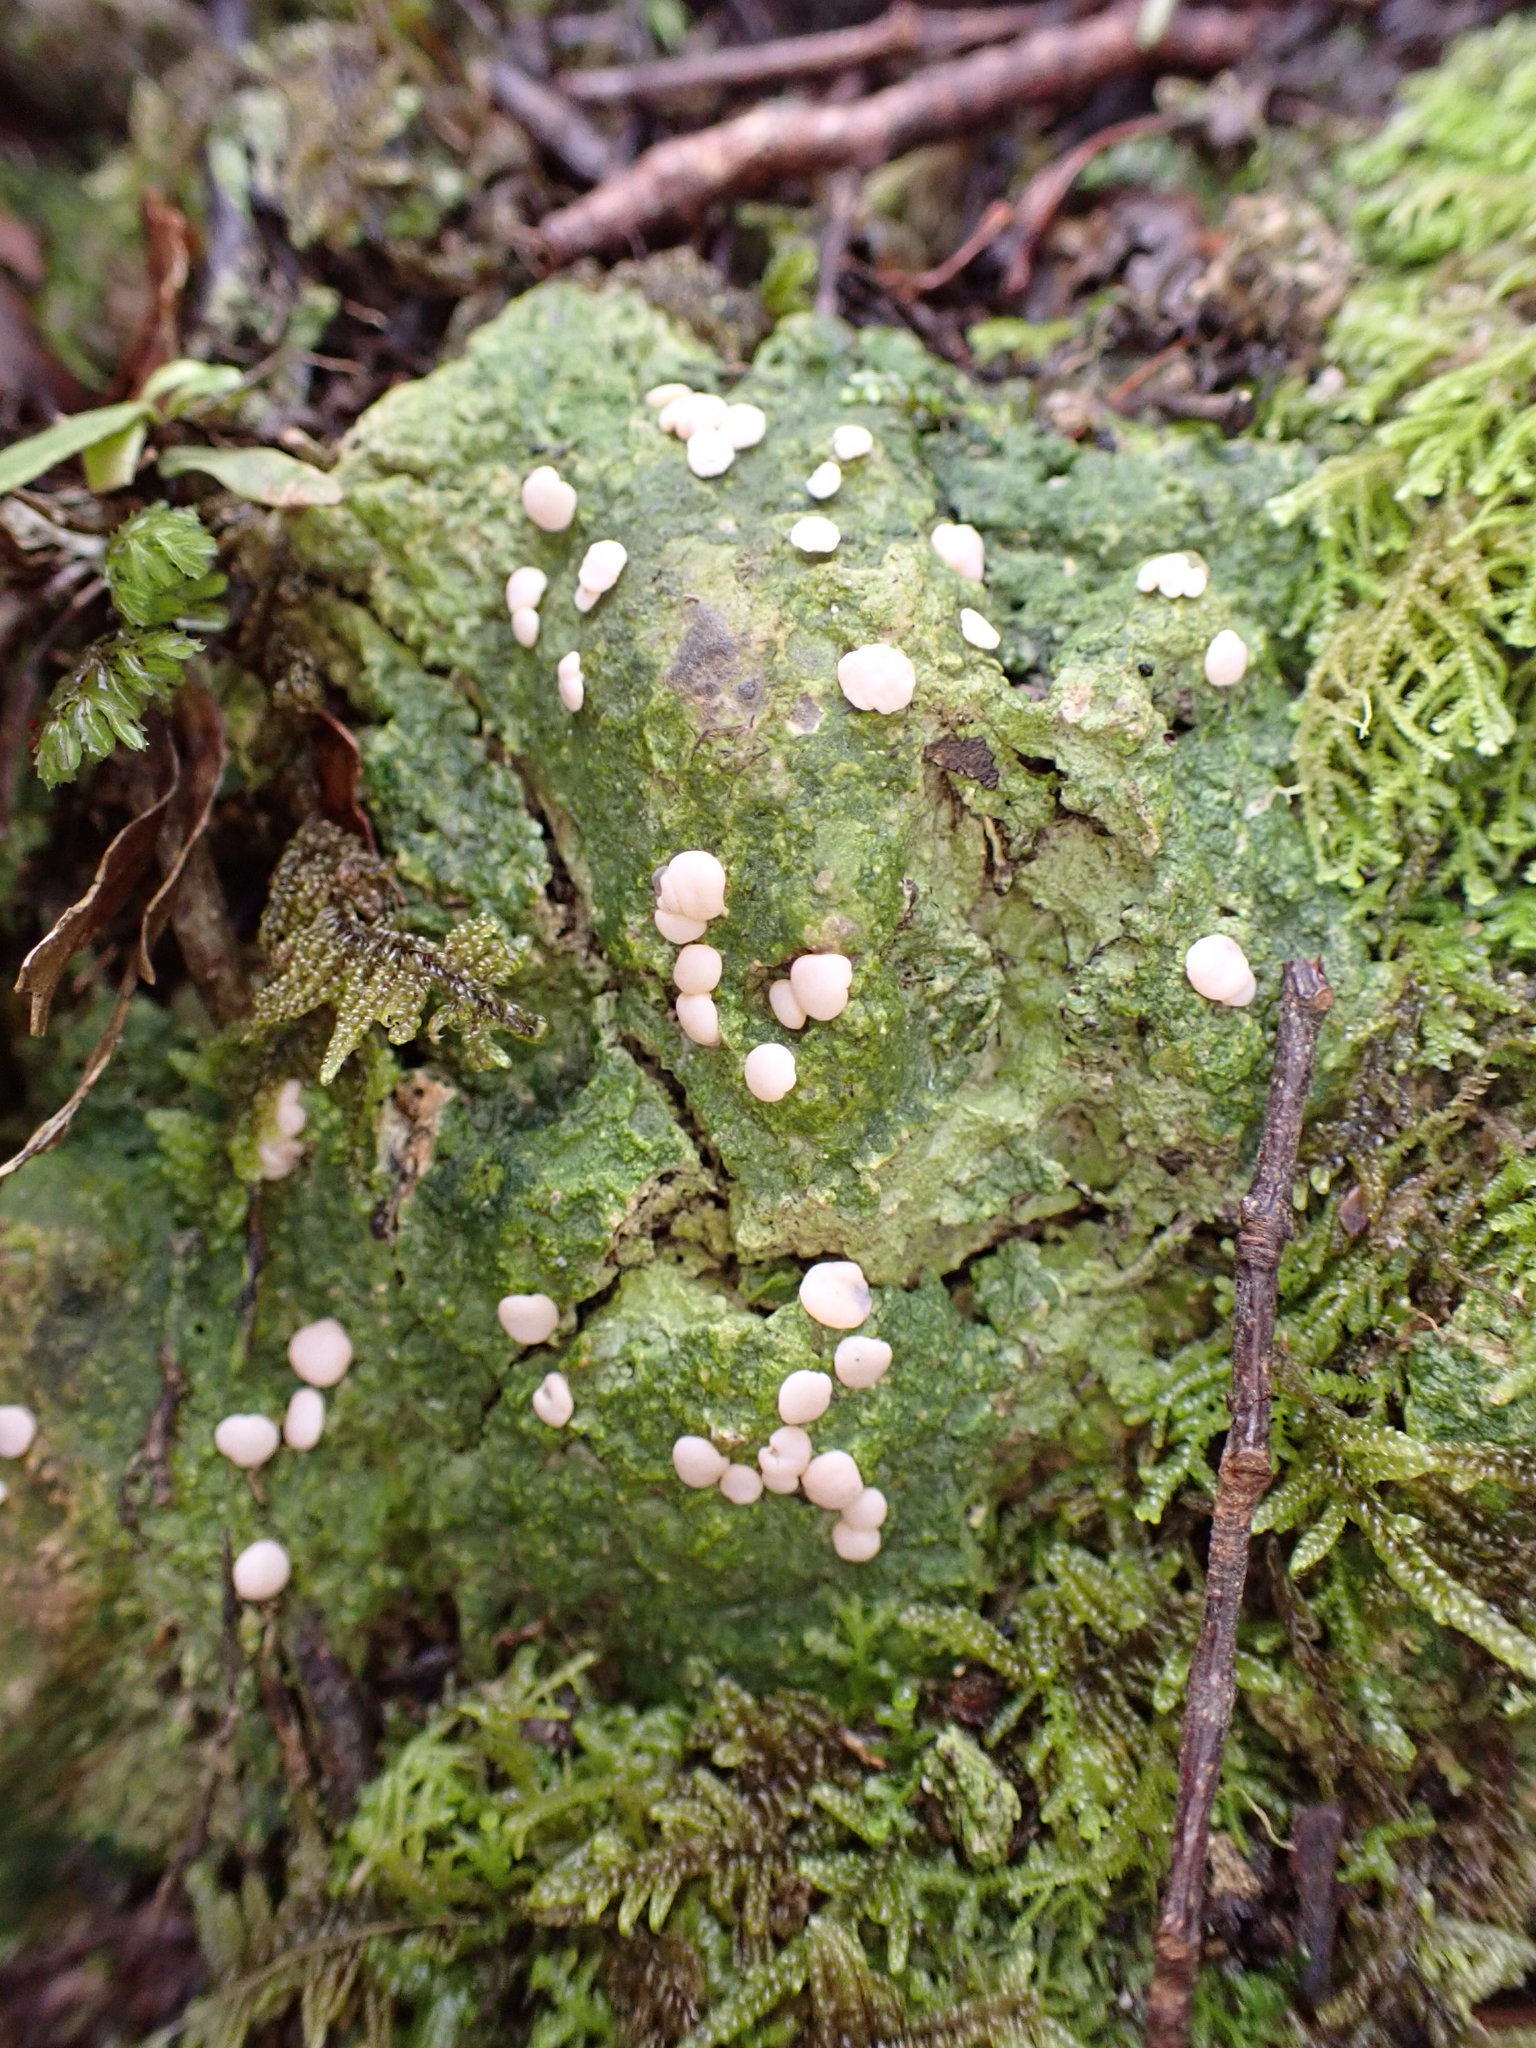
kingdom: Fungi
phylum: Ascomycota
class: Lecanoromycetes
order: Pertusariales
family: Icmadophilaceae
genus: Dibaeis
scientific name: Dibaeis absoluta
